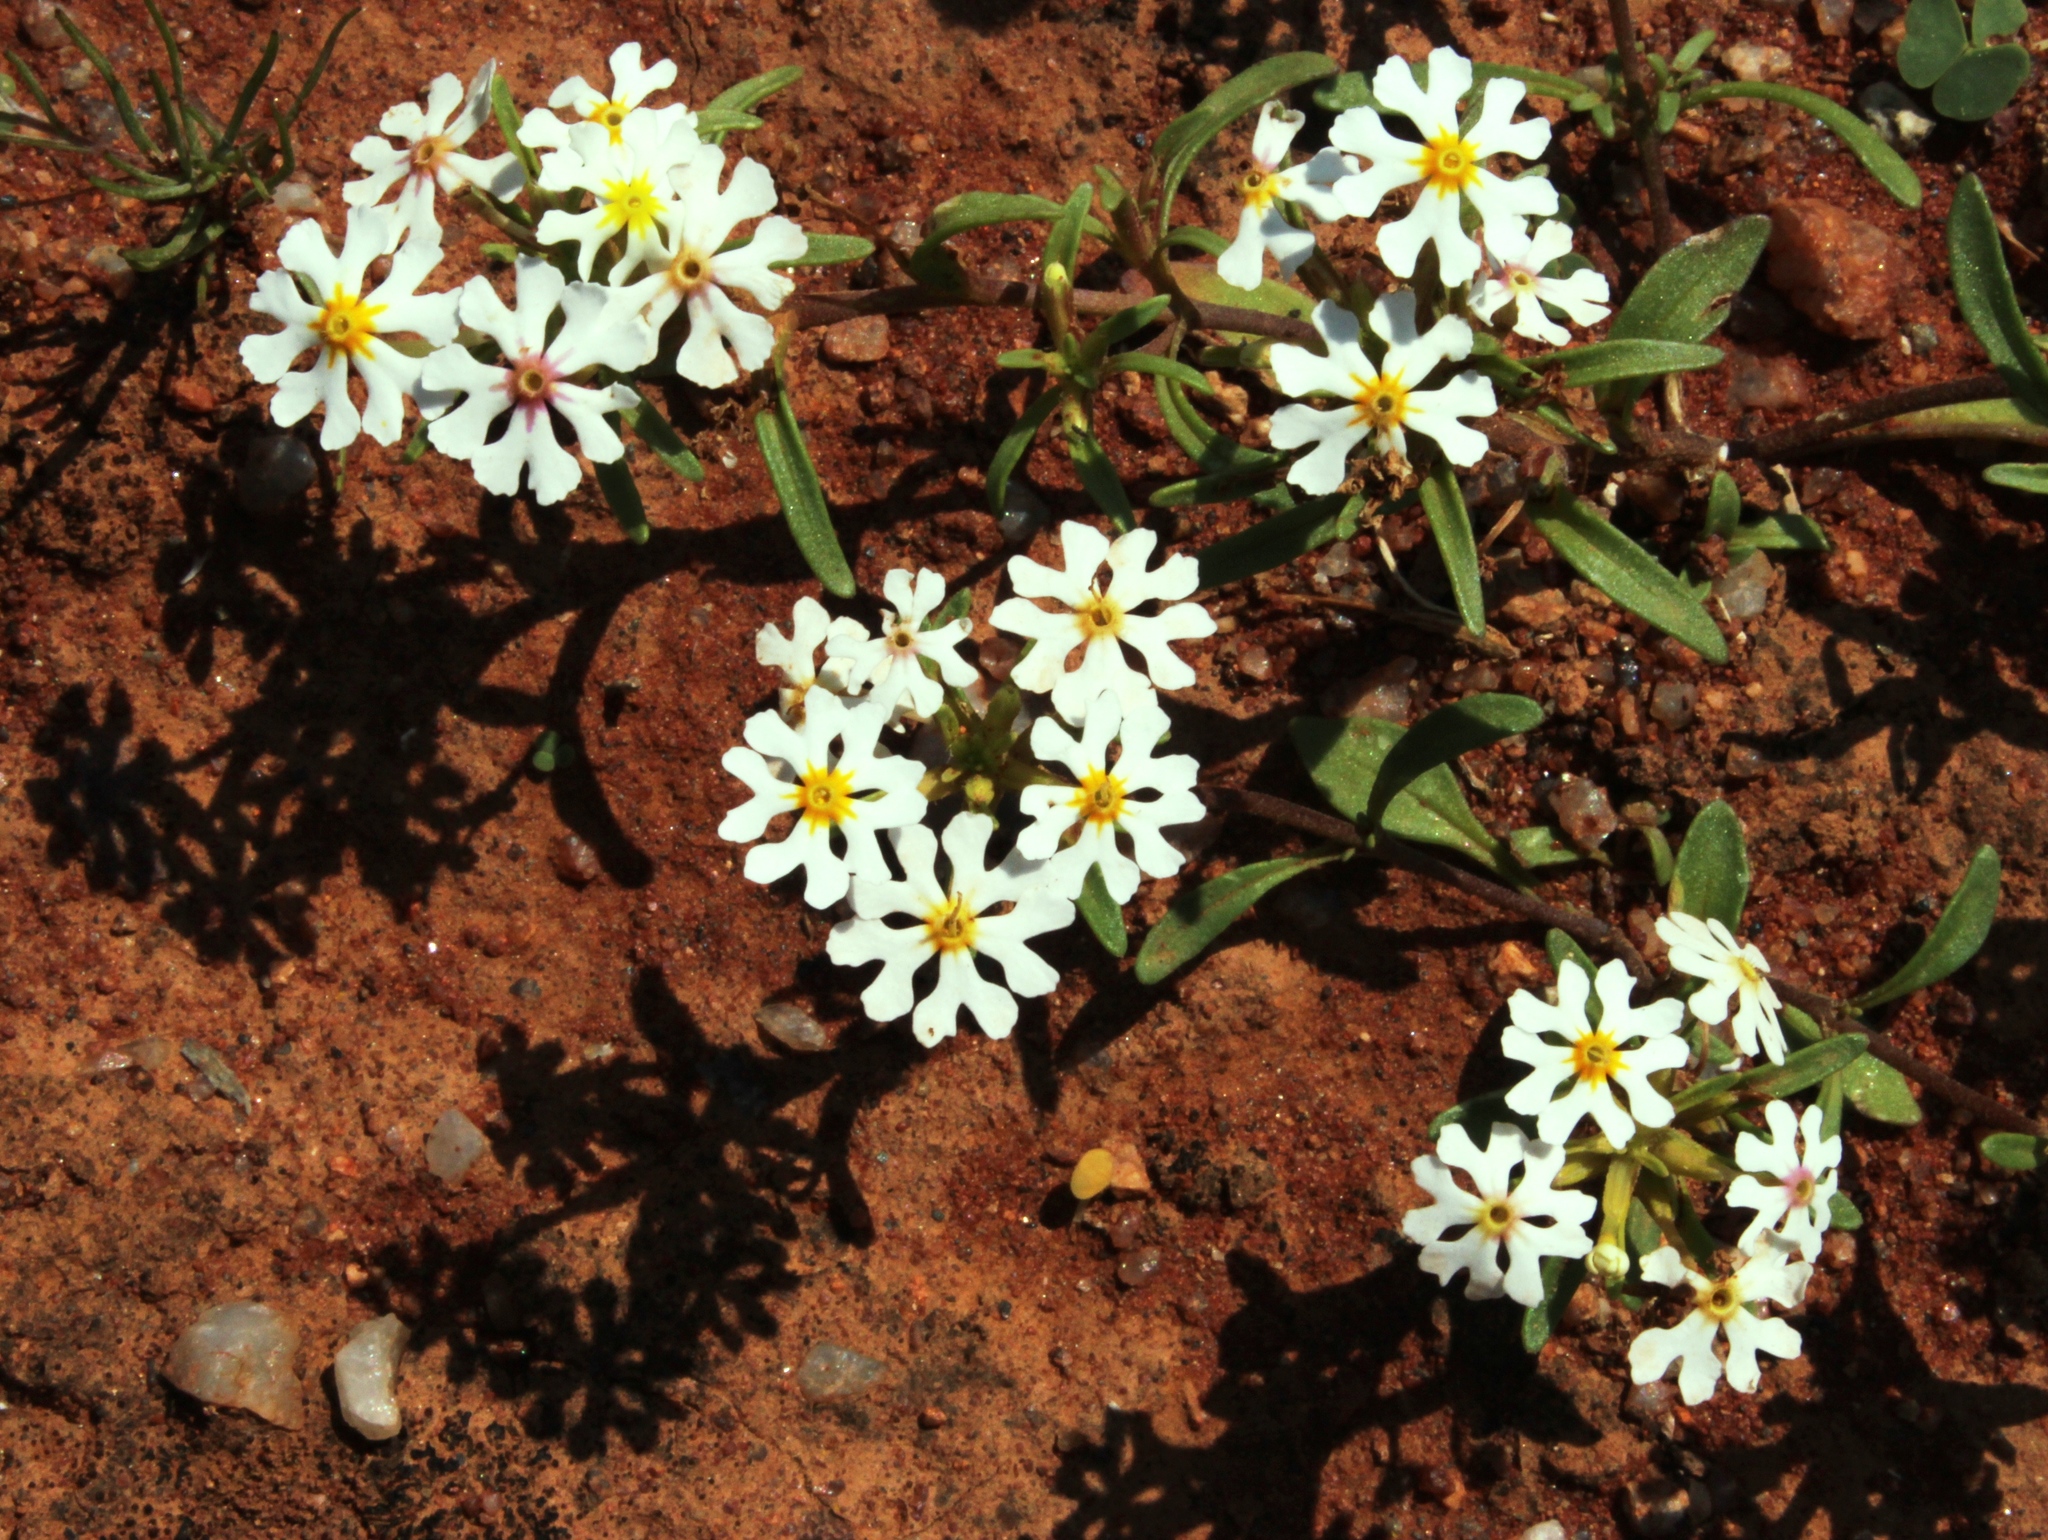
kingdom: Plantae
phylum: Tracheophyta
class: Magnoliopsida
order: Lamiales
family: Scrophulariaceae
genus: Zaluzianskya
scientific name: Zaluzianskya affinis
